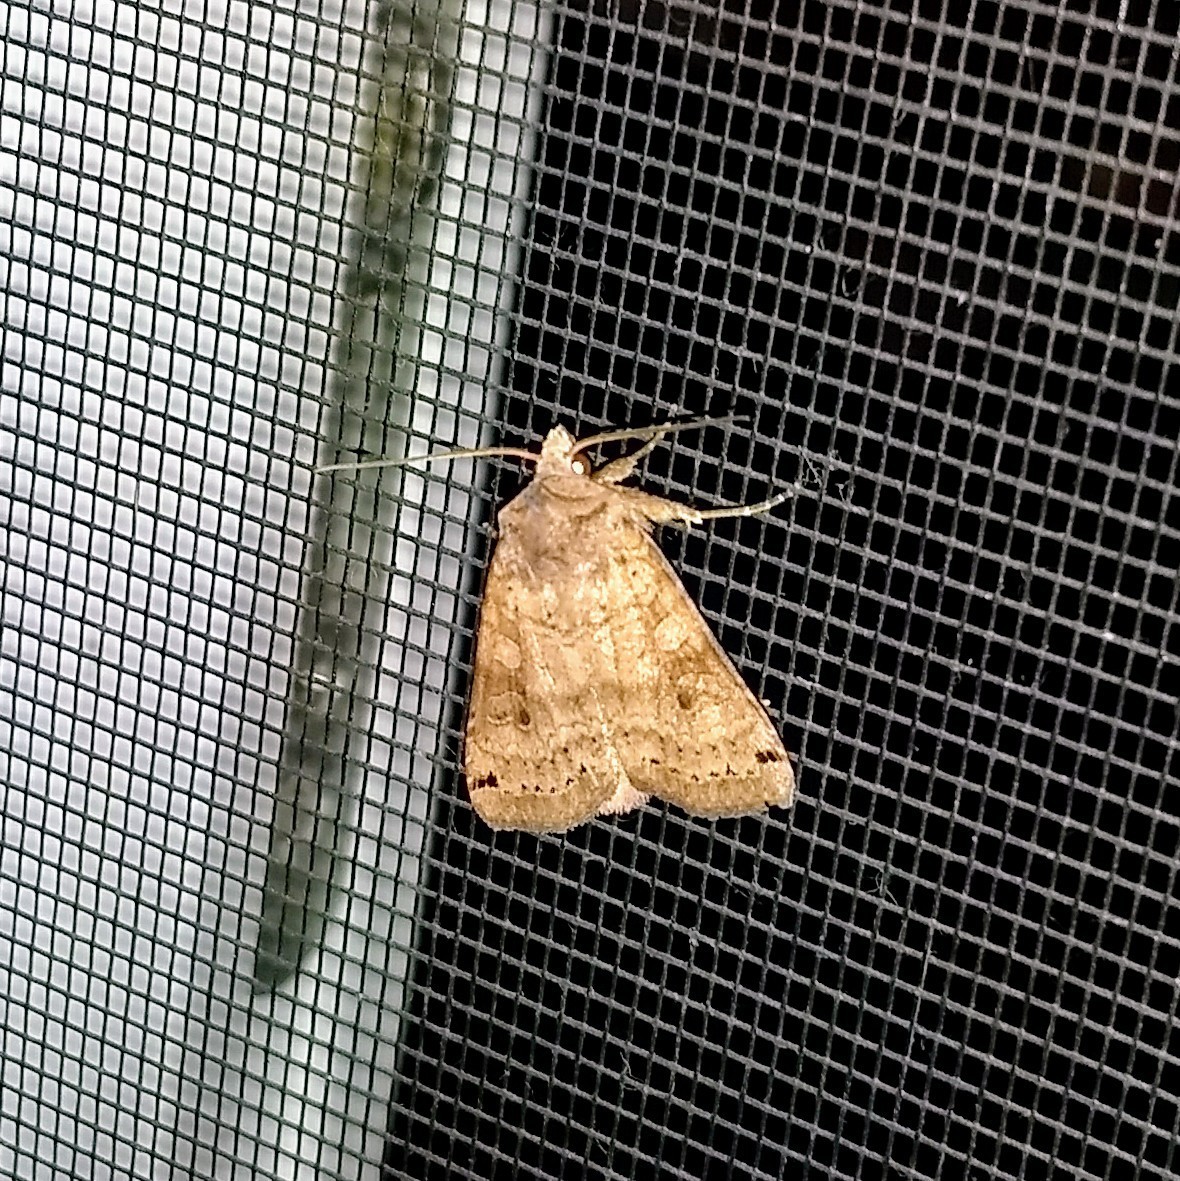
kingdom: Animalia
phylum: Arthropoda
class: Insecta
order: Lepidoptera
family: Noctuidae
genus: Xestia
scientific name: Xestia smithii
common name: Smith's dart
